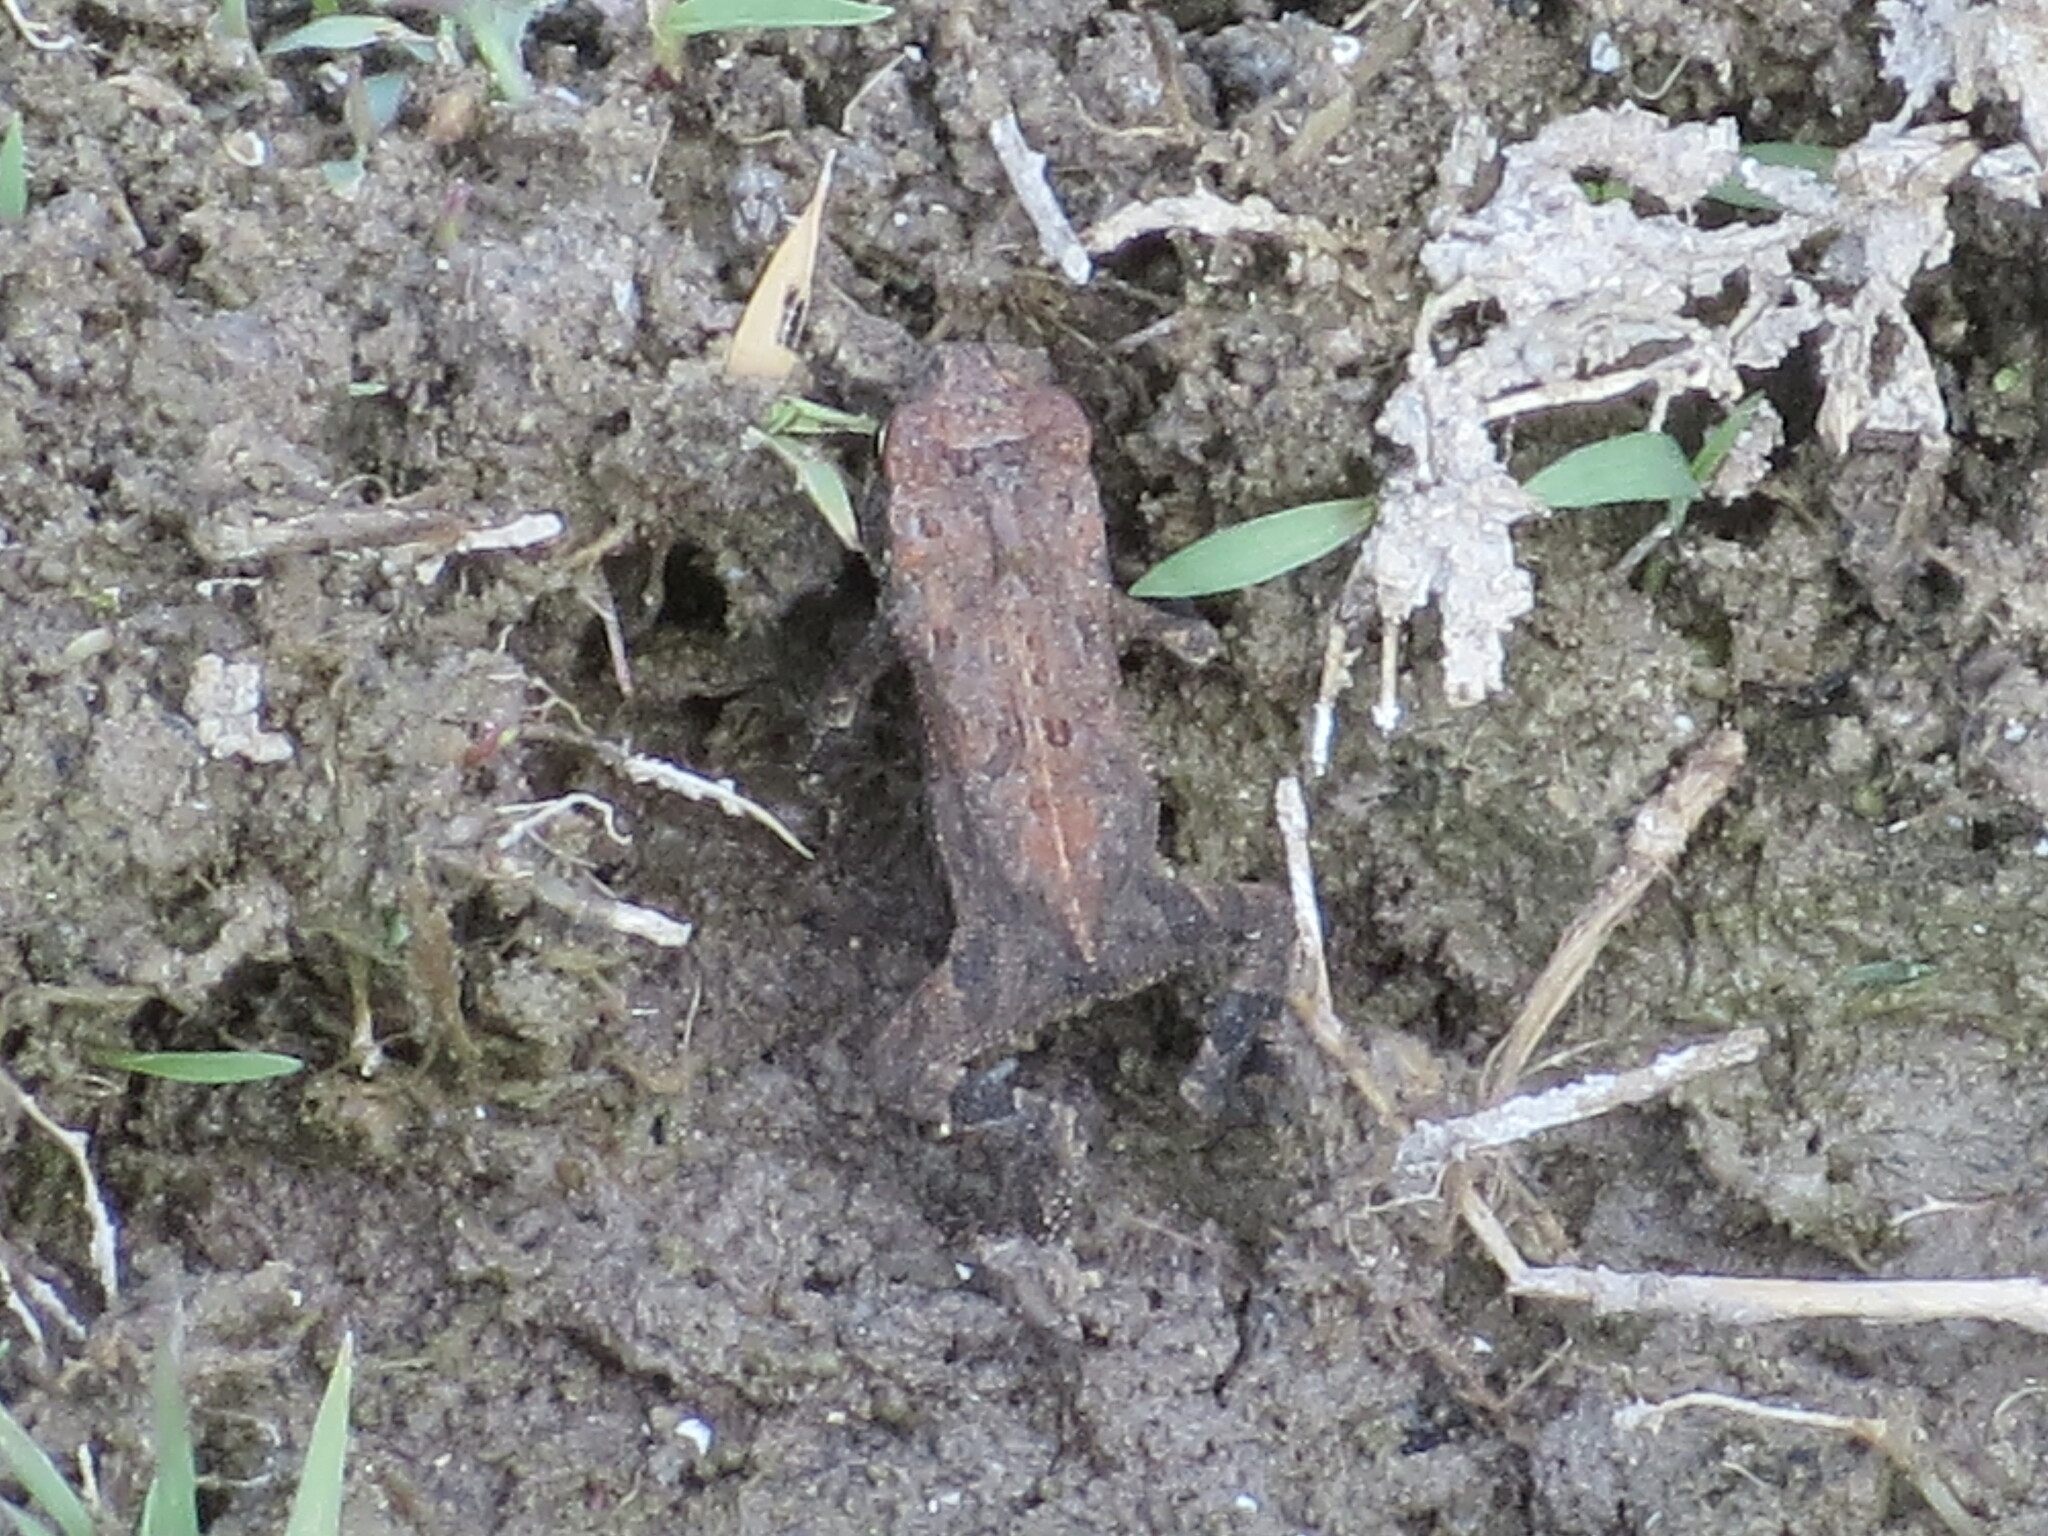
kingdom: Animalia
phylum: Chordata
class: Amphibia
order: Anura
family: Bufonidae
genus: Incilius
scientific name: Incilius nebulifer
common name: Gulf coast toad
